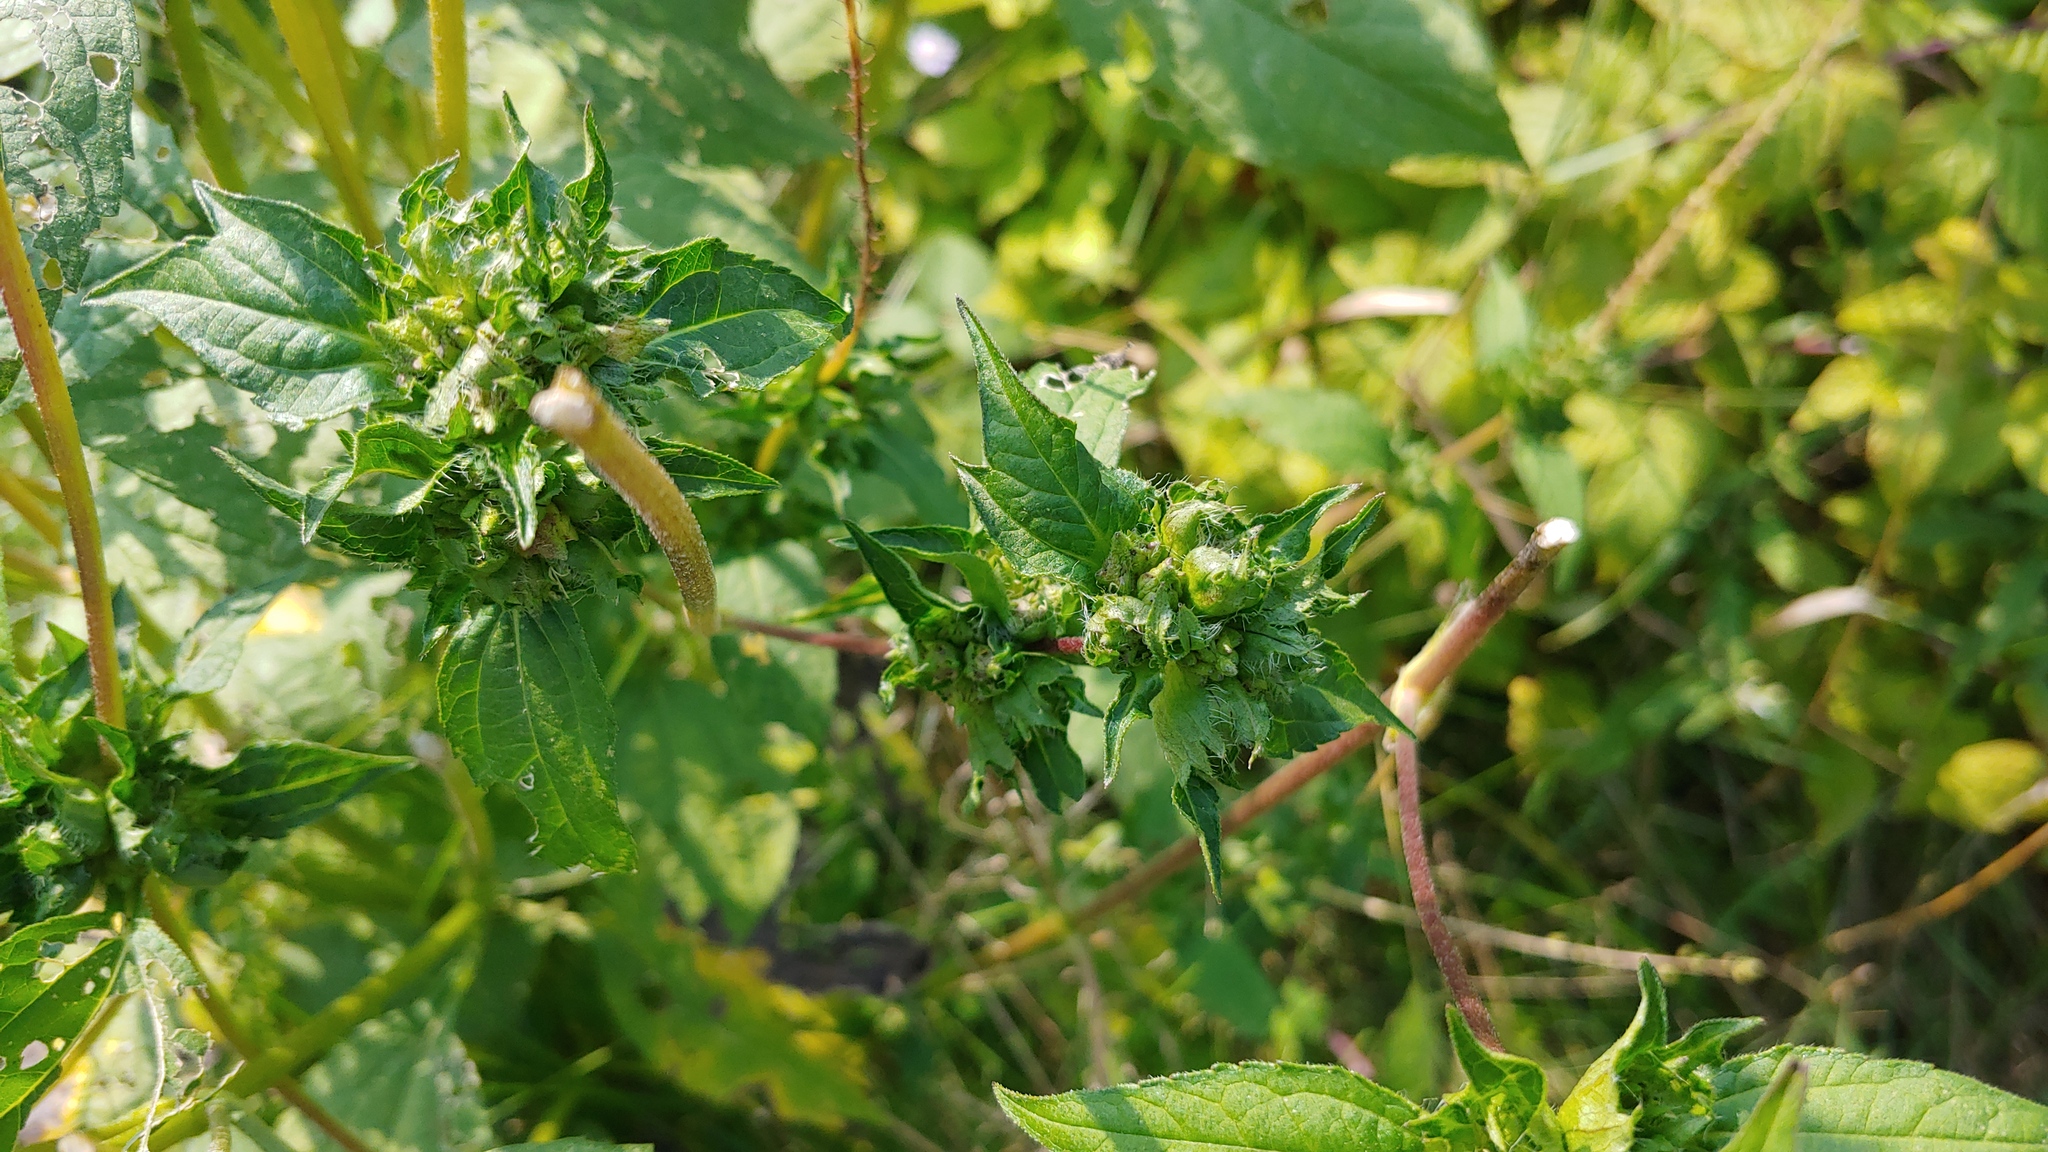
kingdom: Plantae
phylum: Tracheophyta
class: Magnoliopsida
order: Asterales
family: Asteraceae
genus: Ambrosia
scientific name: Ambrosia trifida
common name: Giant ragweed
